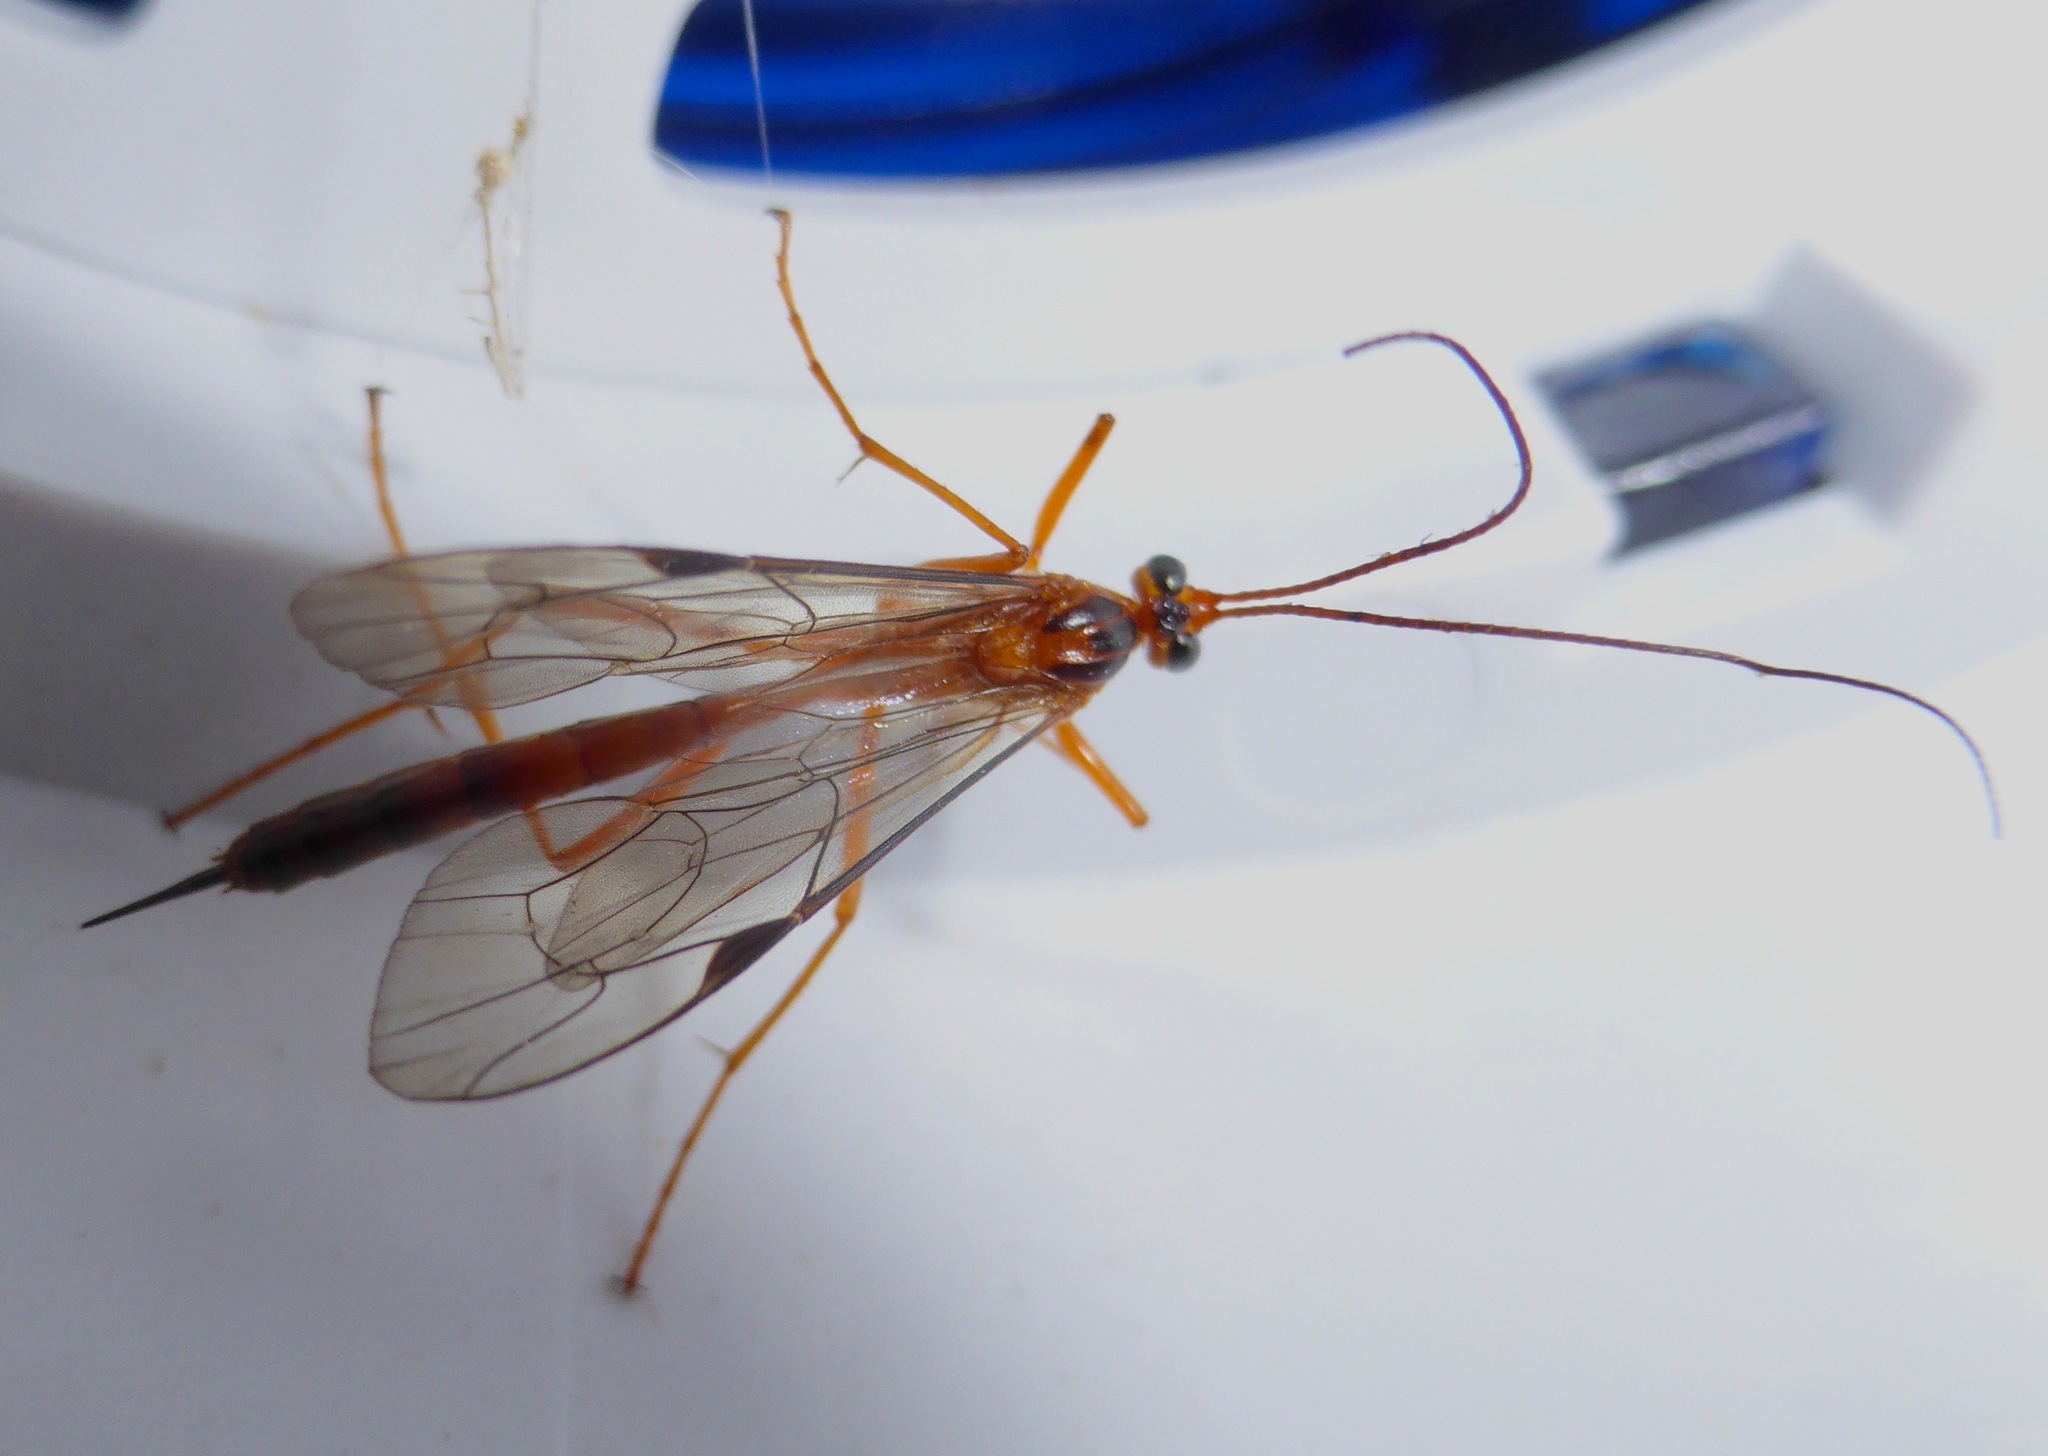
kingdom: Animalia
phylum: Arthropoda
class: Insecta
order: Hymenoptera
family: Ichneumonidae
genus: Netelia
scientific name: Netelia ephippiata
